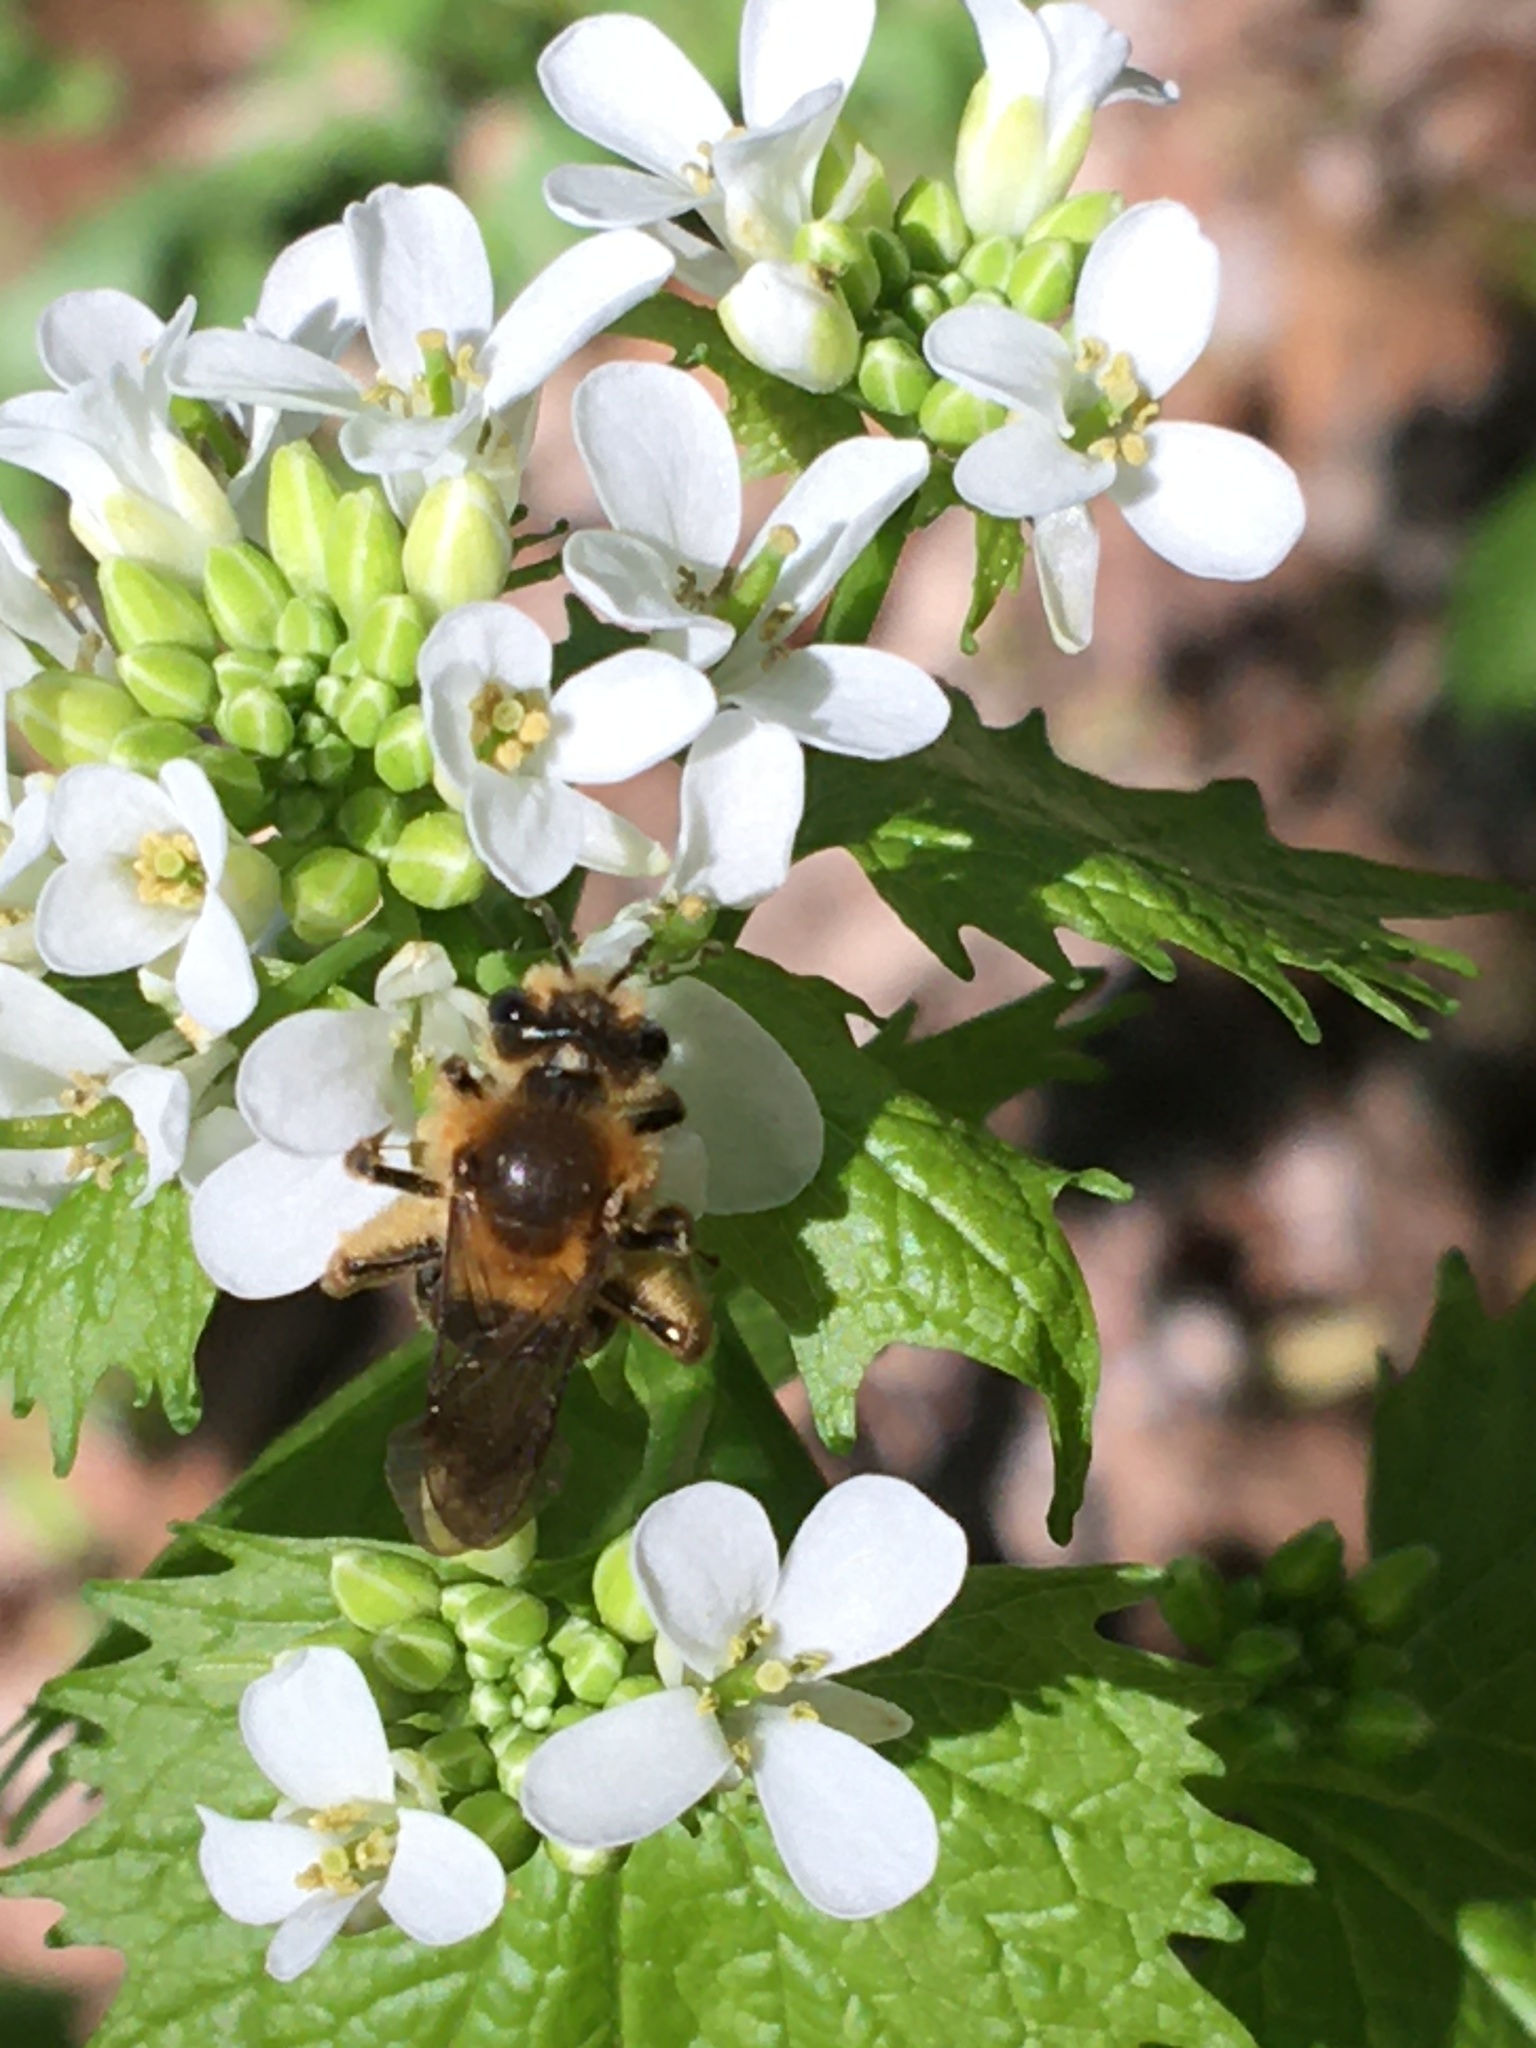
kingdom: Animalia
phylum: Arthropoda
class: Insecta
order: Hymenoptera
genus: Melandrena
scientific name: Melandrena
